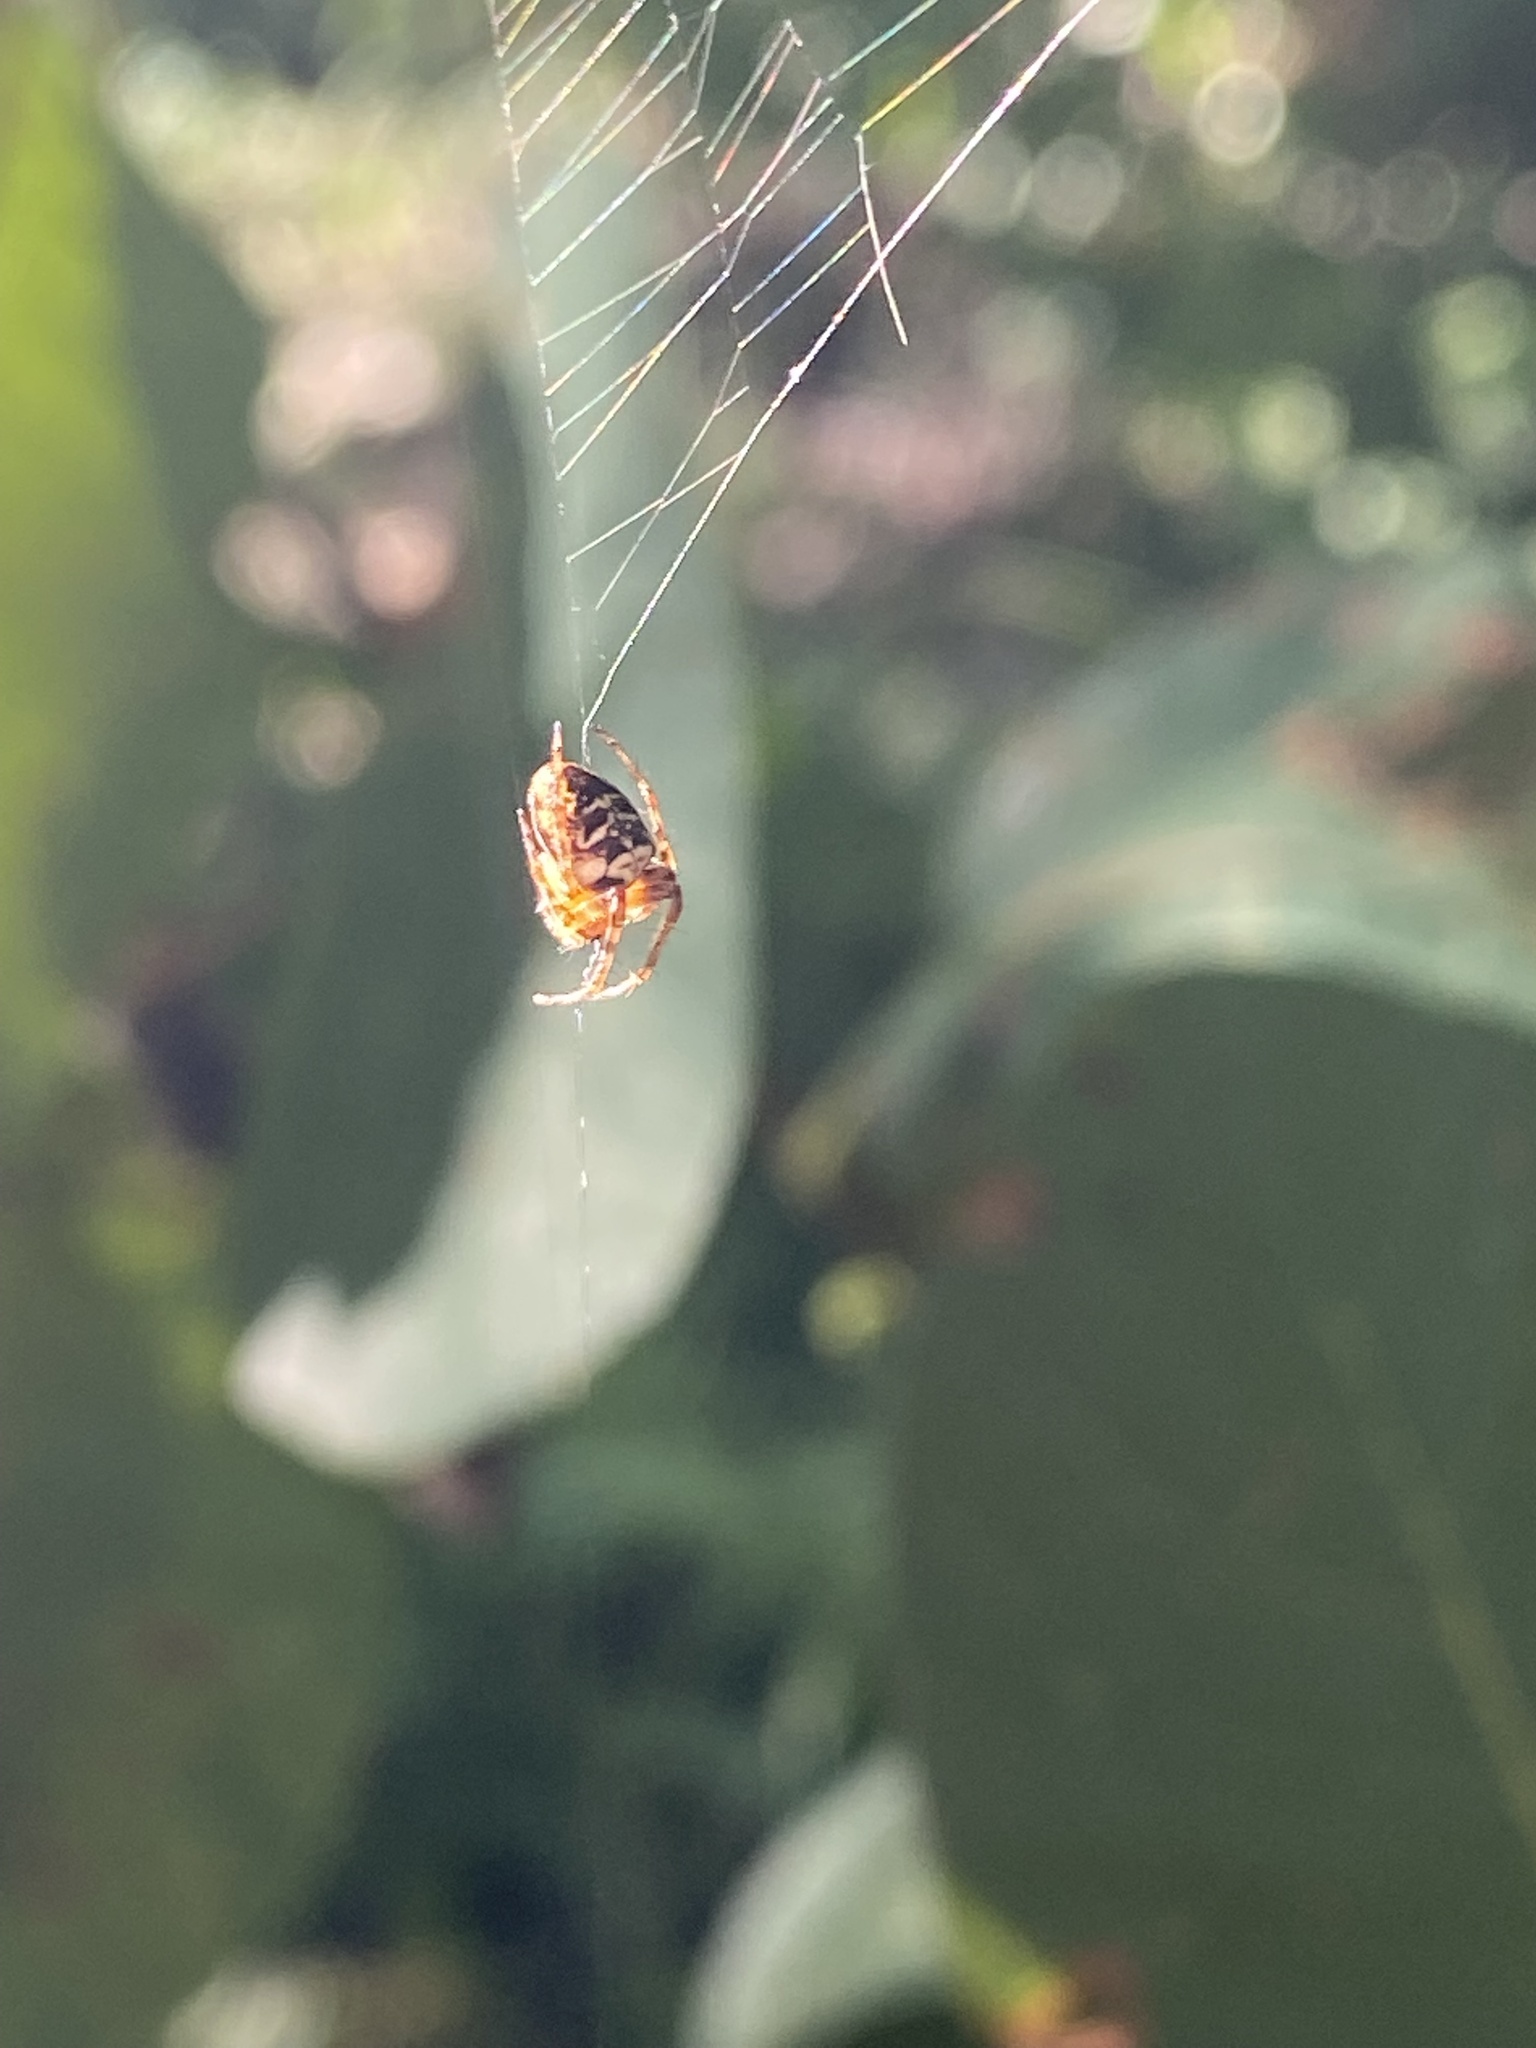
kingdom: Animalia
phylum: Arthropoda
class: Arachnida
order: Araneae
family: Araneidae
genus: Zilla
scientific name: Zilla diodia
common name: Zilla diodia
